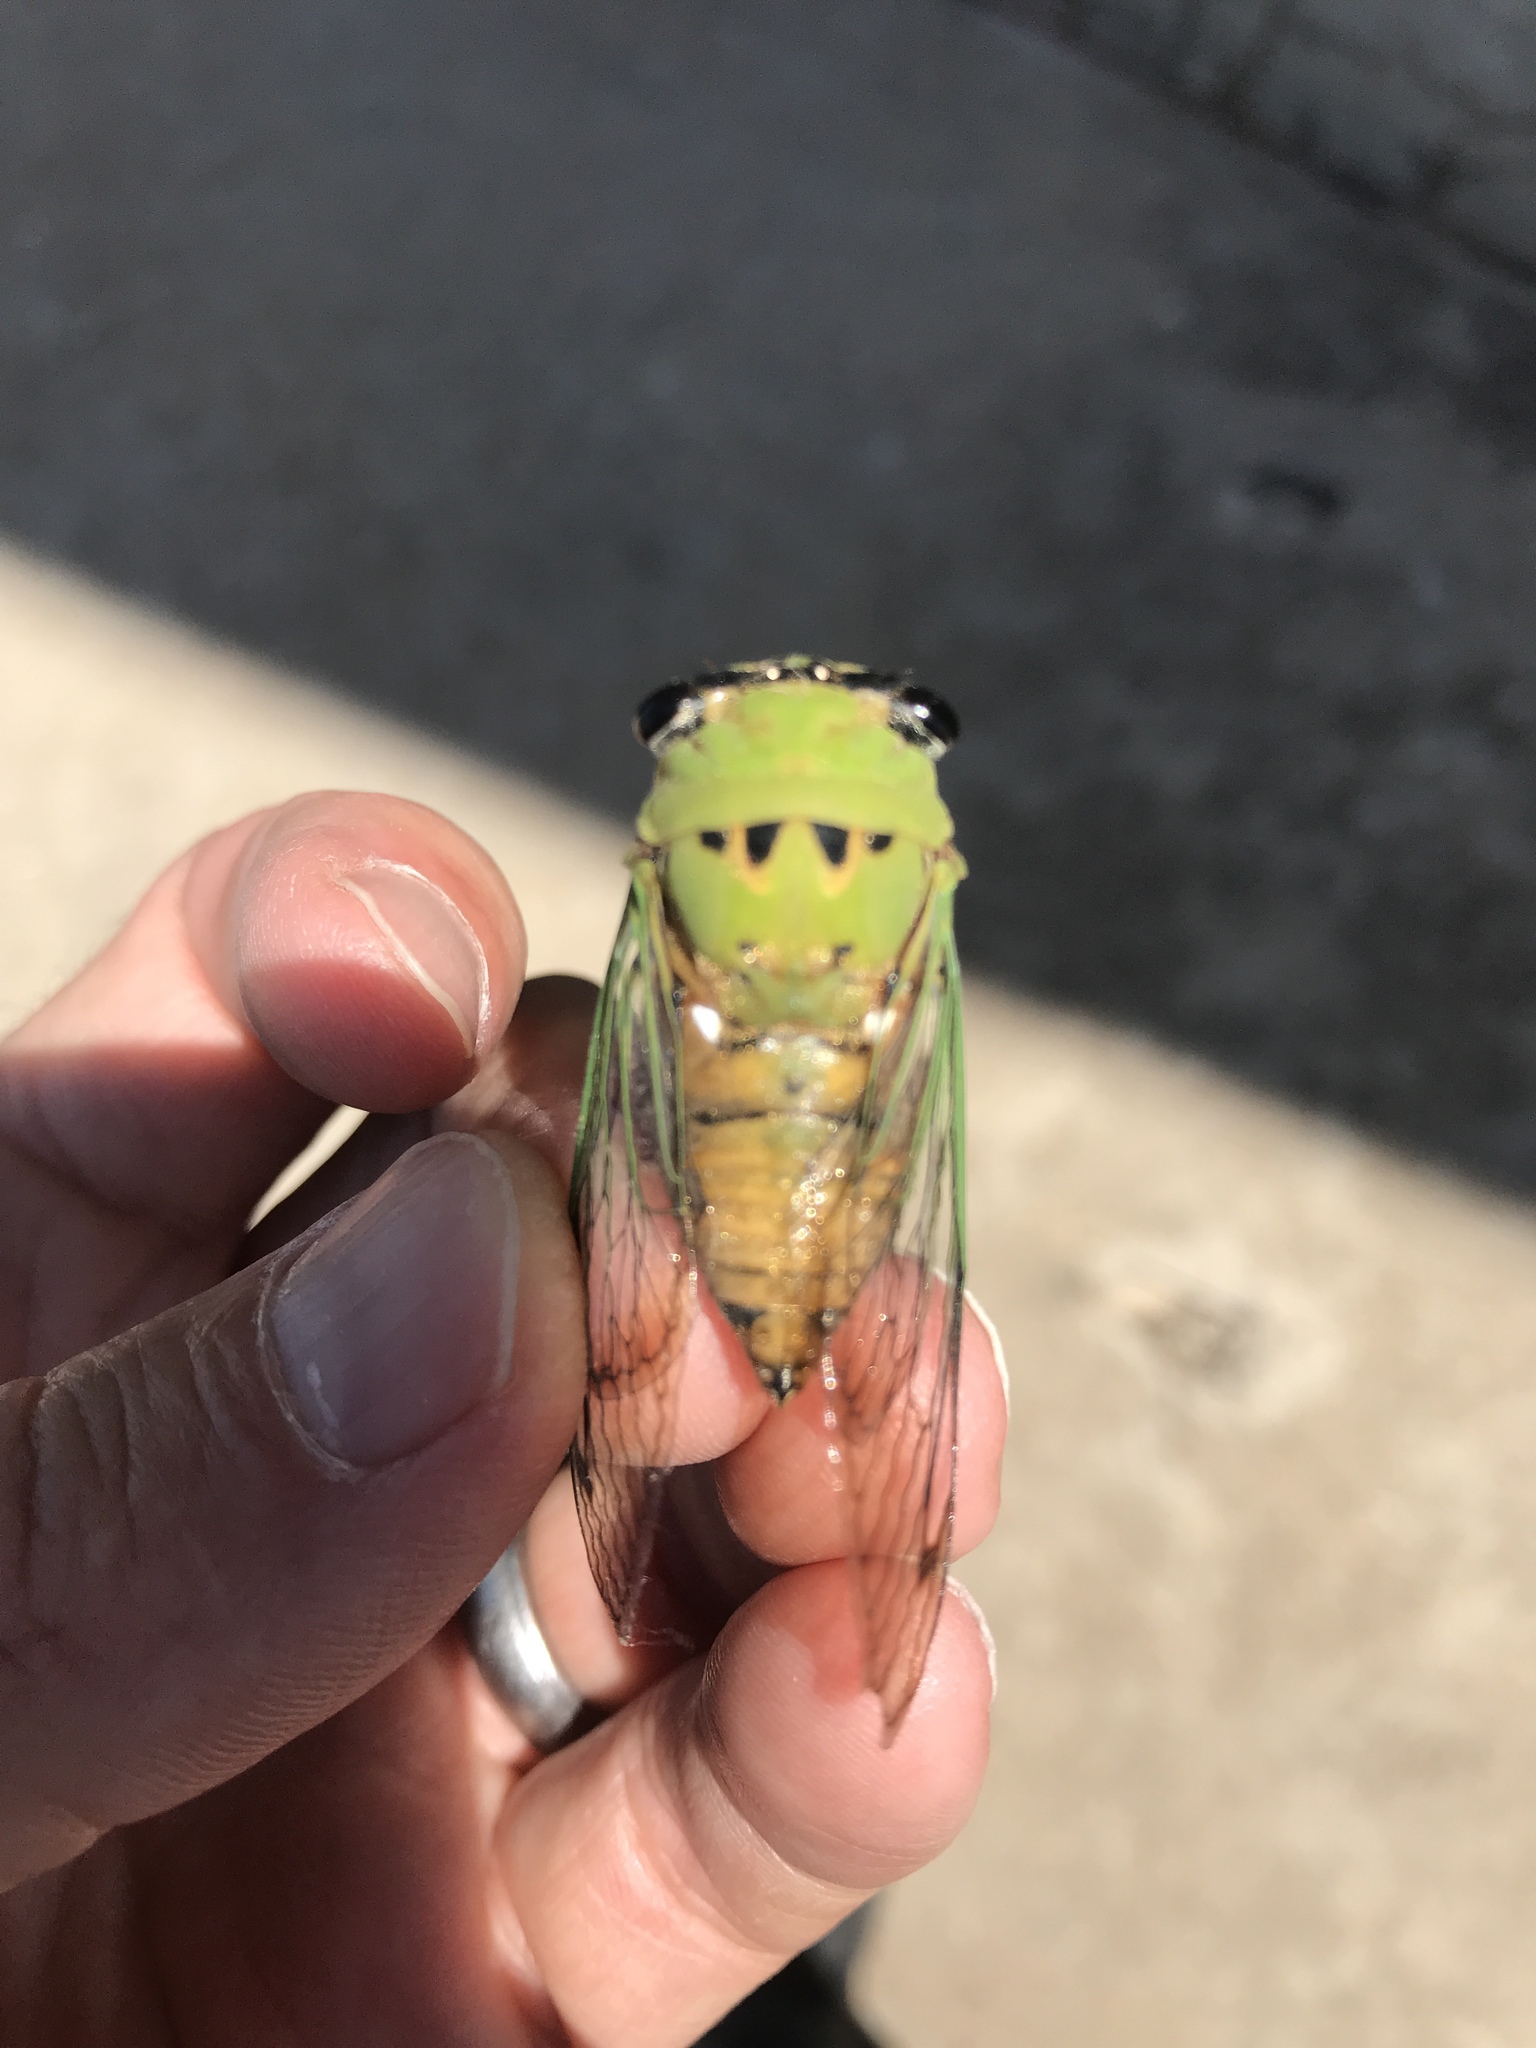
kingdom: Animalia
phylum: Arthropoda
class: Insecta
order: Hemiptera
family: Cicadidae
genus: Neotibicen
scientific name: Neotibicen superbus
